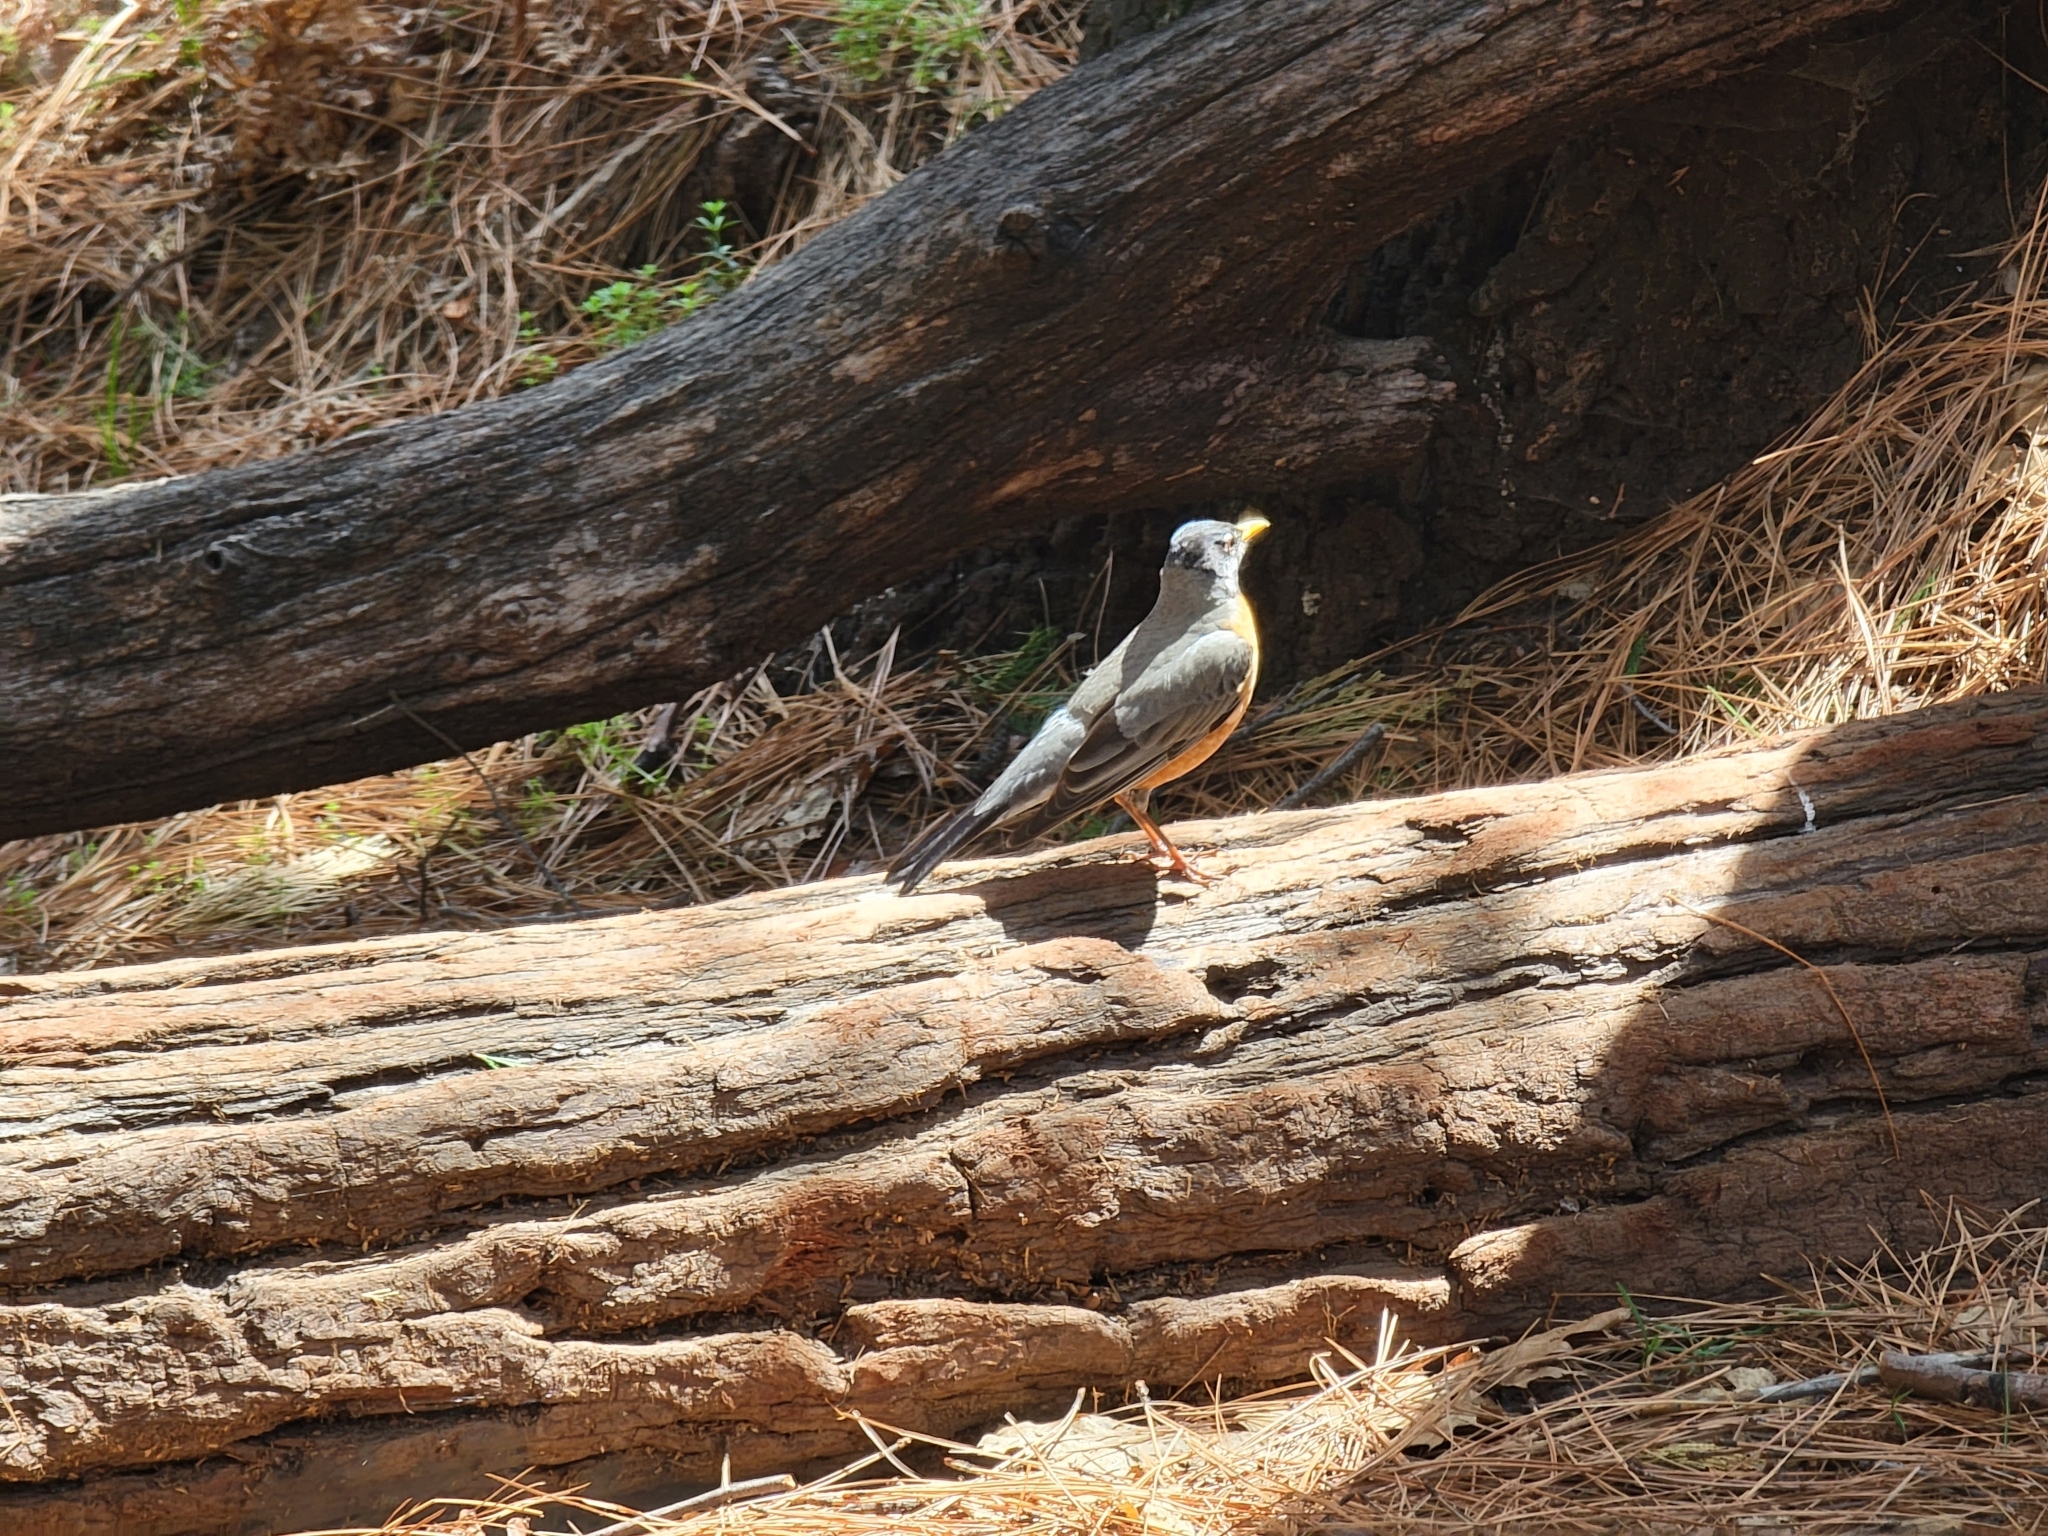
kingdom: Animalia
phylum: Chordata
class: Aves
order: Passeriformes
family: Turdidae
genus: Turdus
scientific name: Turdus migratorius
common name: American robin
